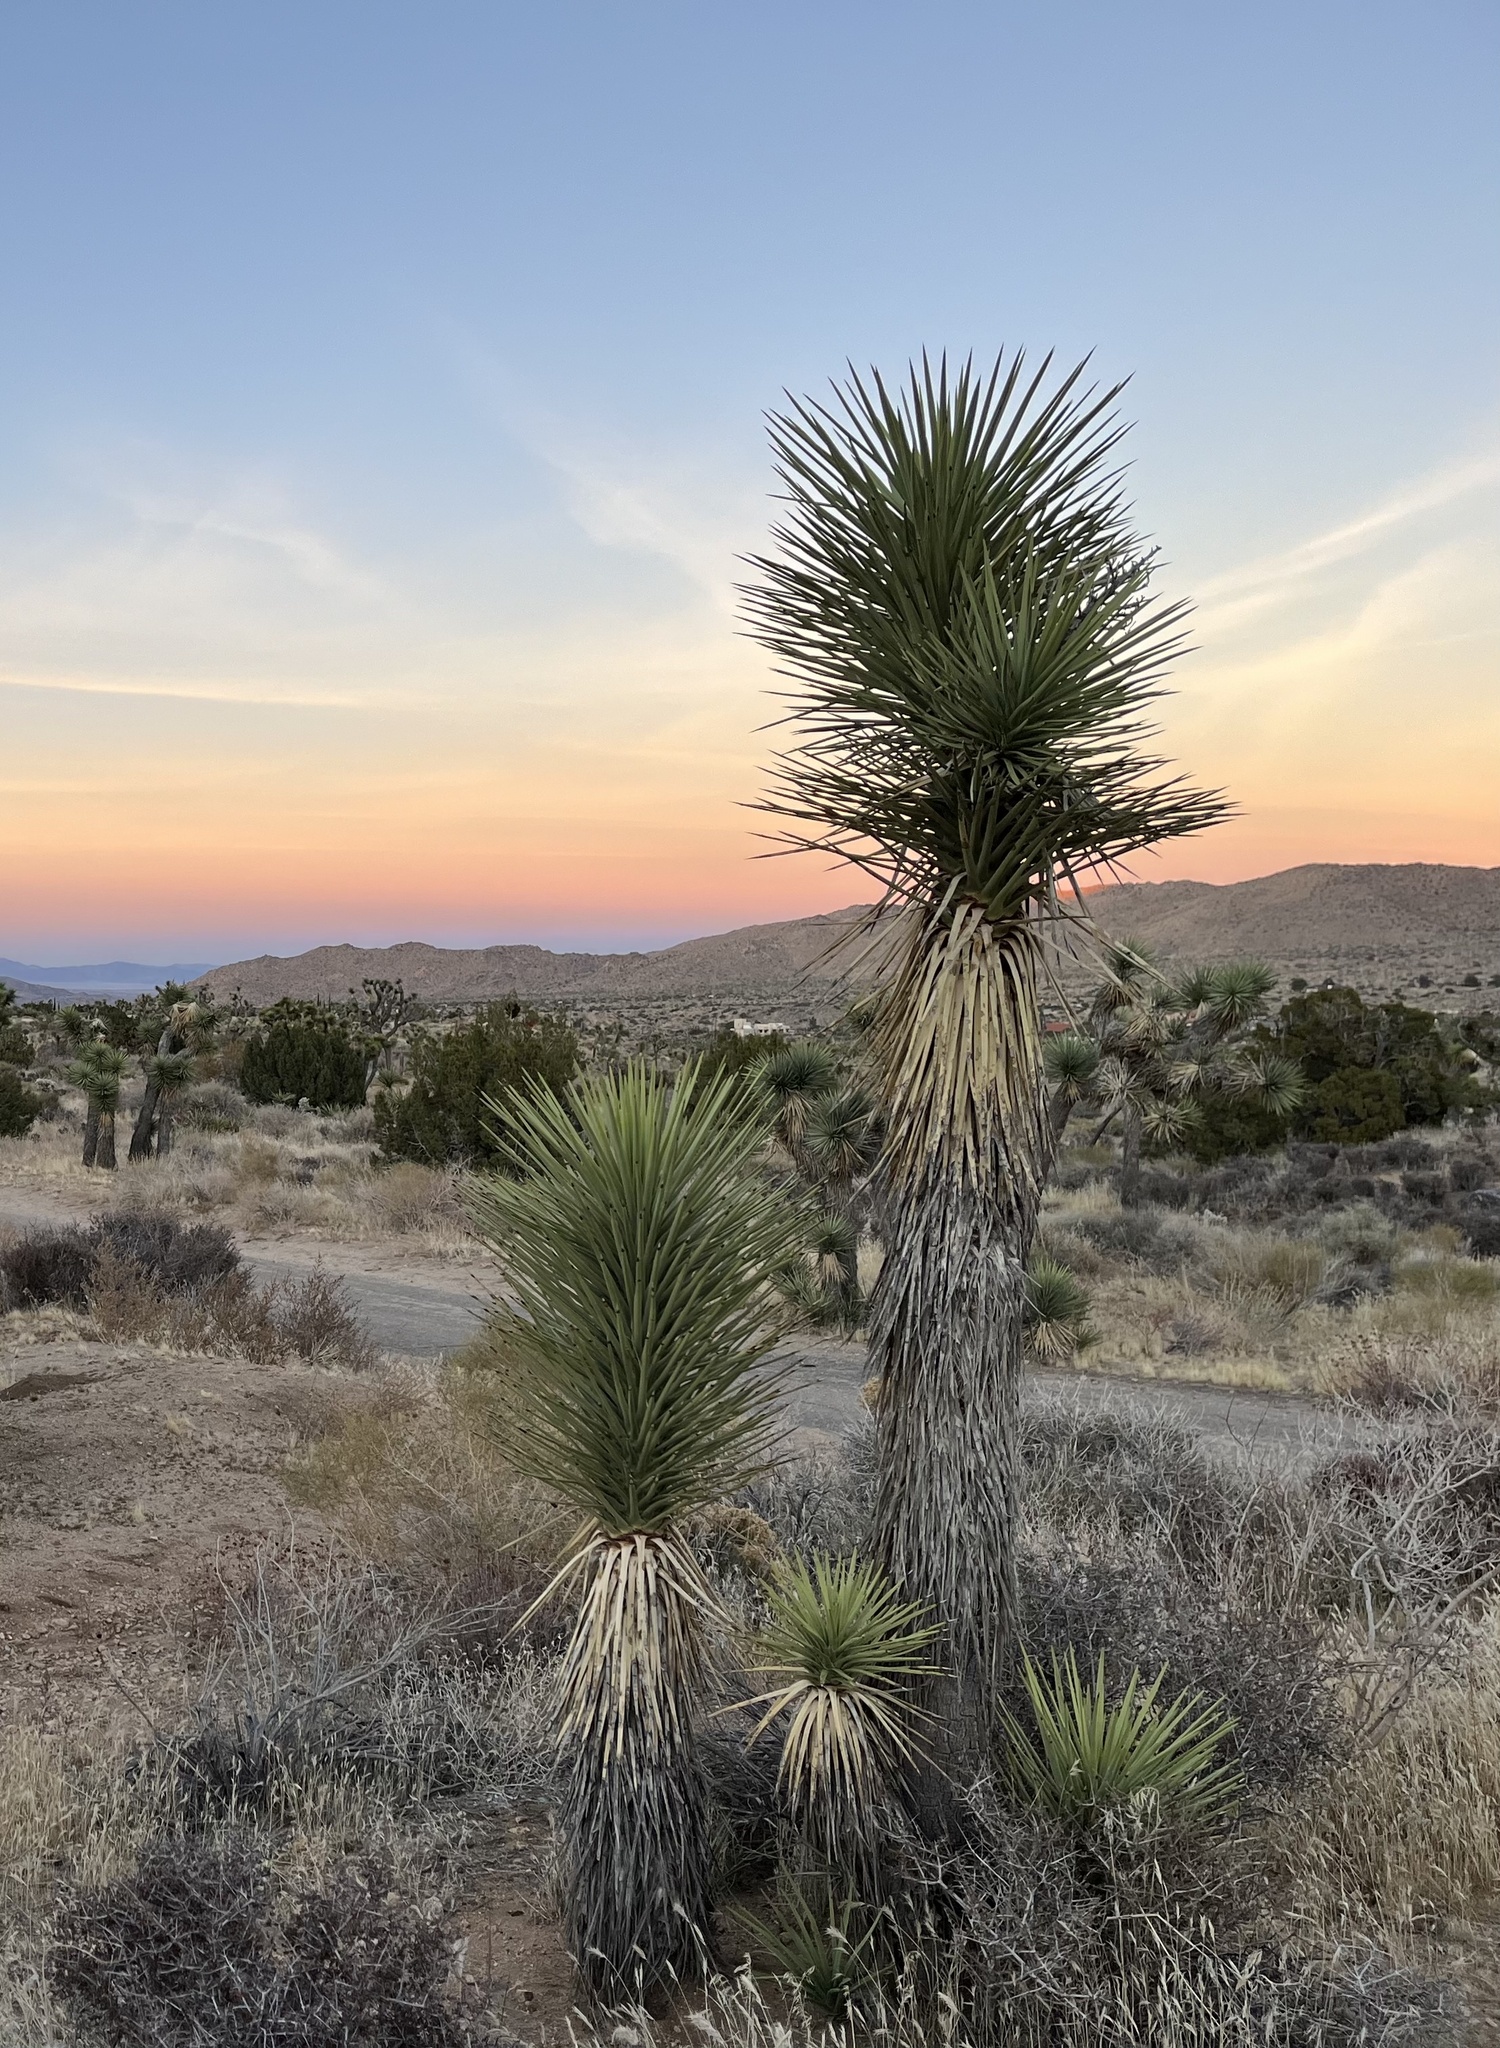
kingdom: Plantae
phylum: Tracheophyta
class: Liliopsida
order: Asparagales
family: Asparagaceae
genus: Yucca
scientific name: Yucca brevifolia
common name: Joshua tree
